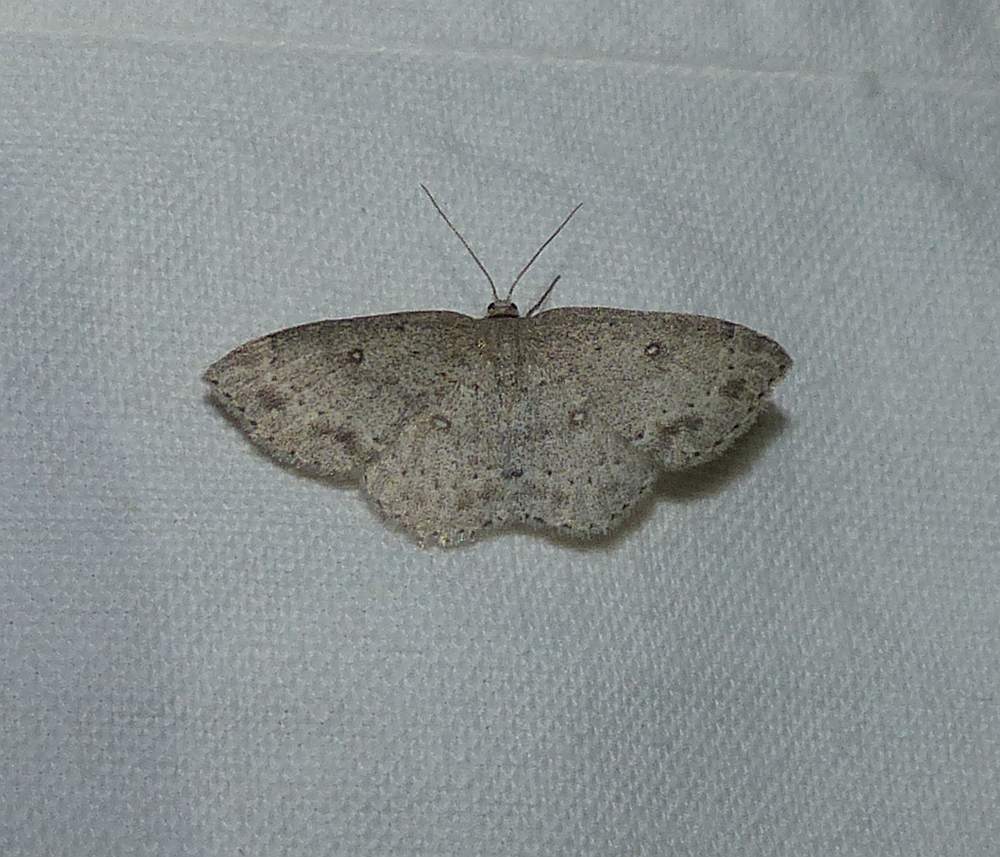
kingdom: Animalia
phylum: Arthropoda
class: Insecta
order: Lepidoptera
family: Geometridae
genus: Cyclophora
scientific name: Cyclophora pendulinaria
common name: Sweet fern geometer
